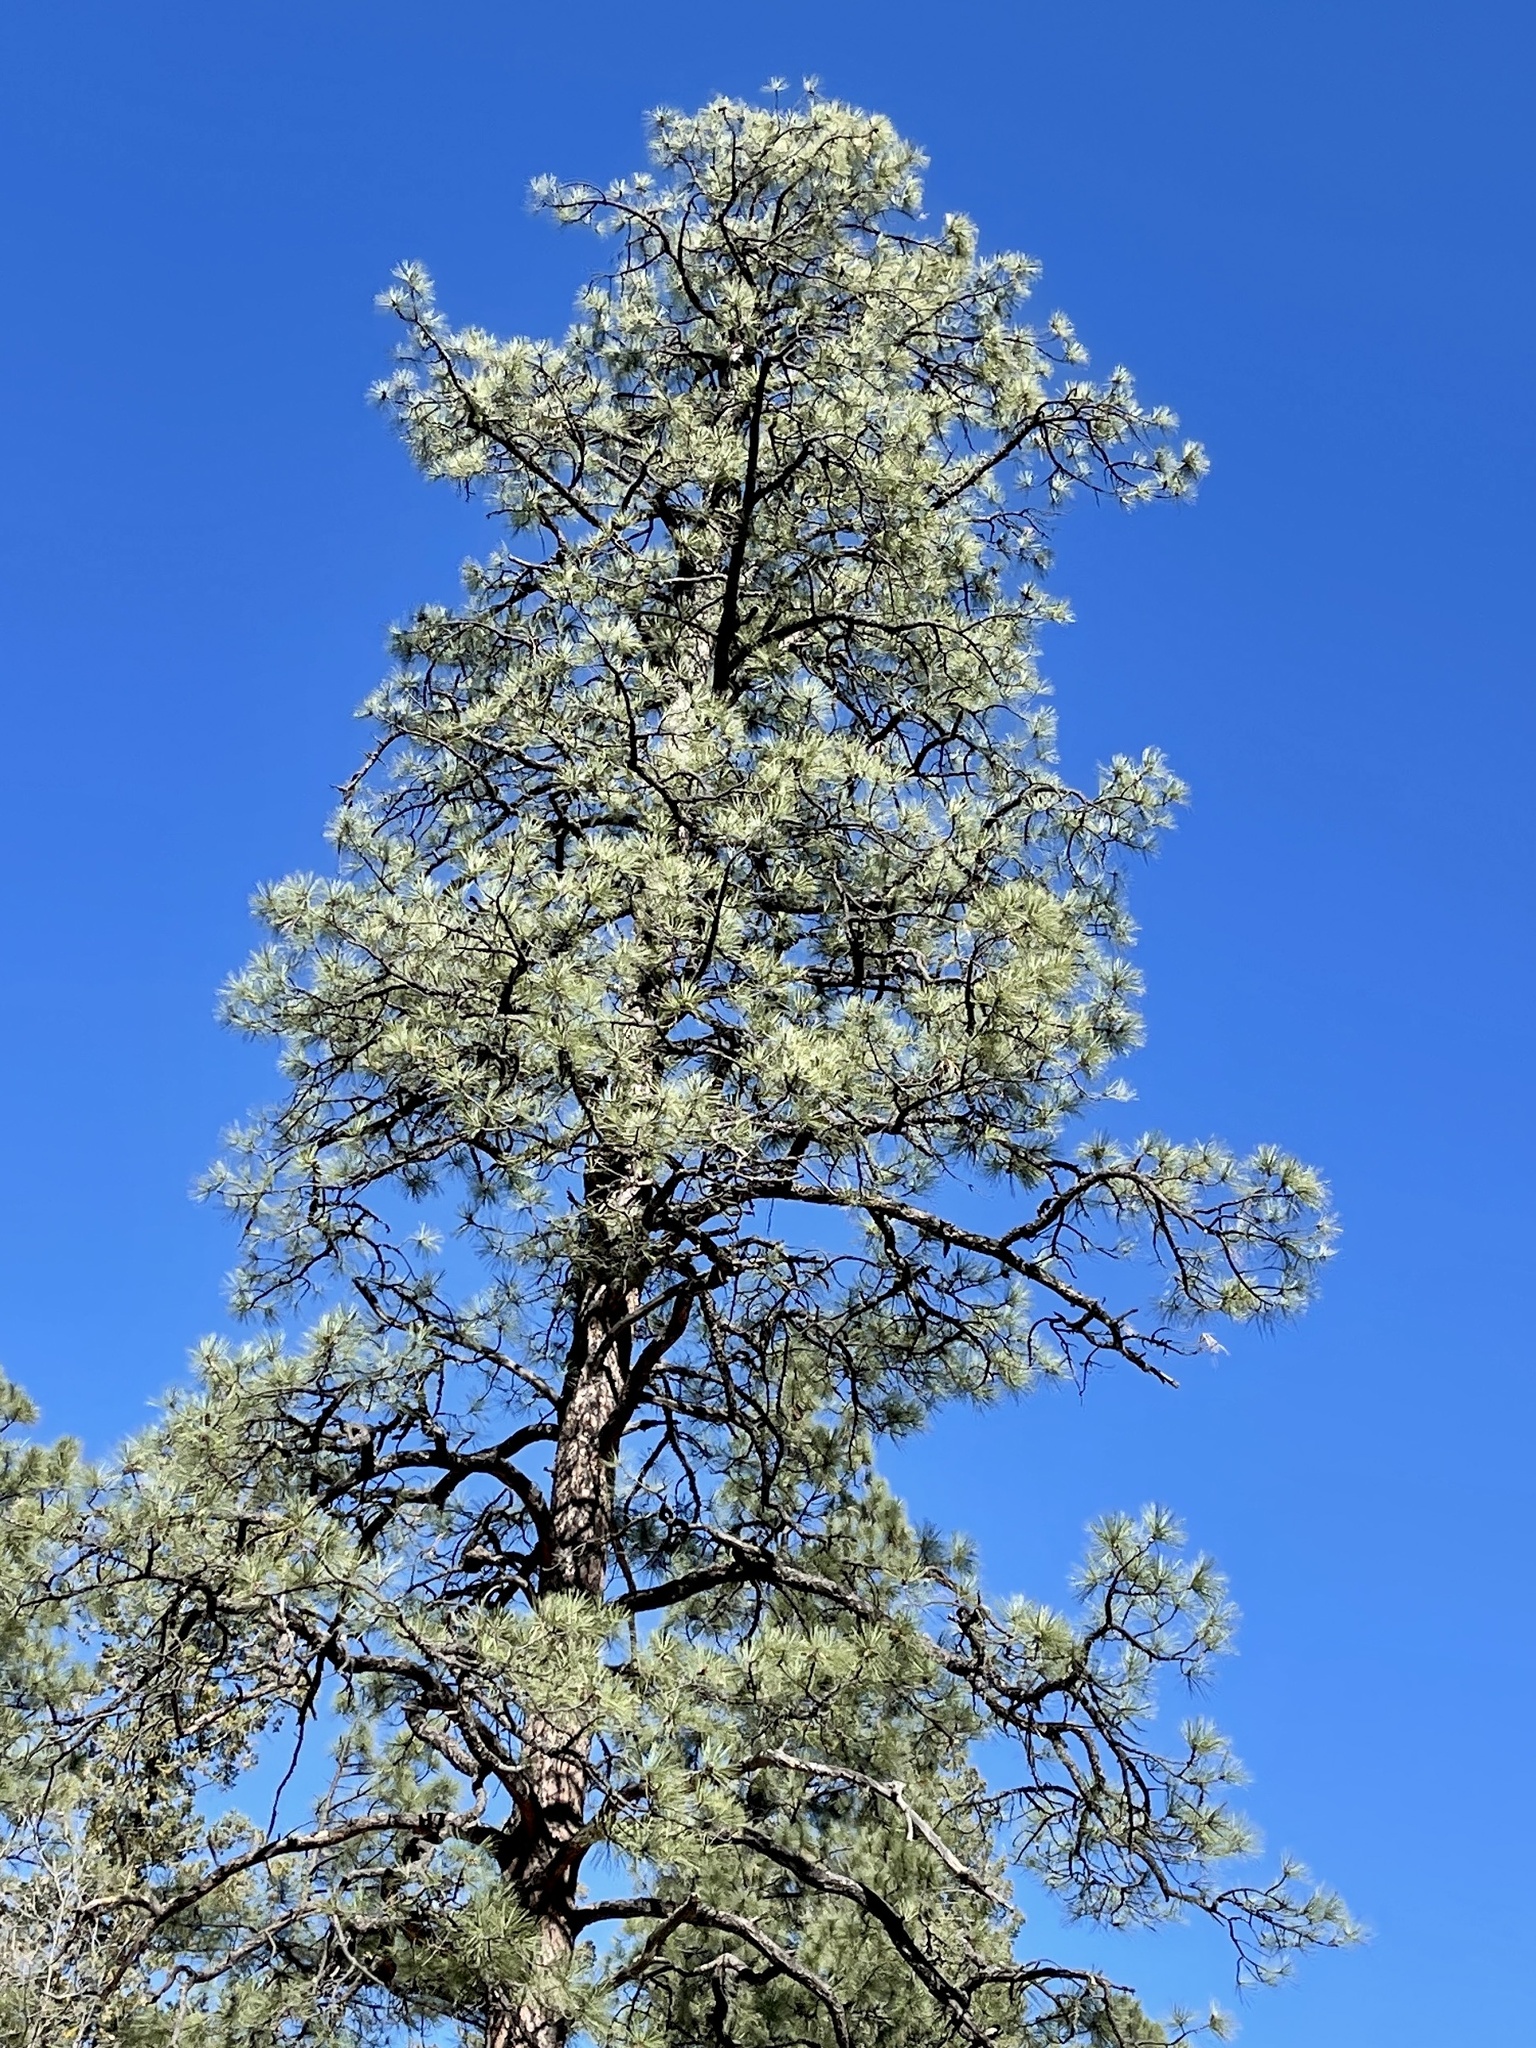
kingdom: Plantae
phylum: Tracheophyta
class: Pinopsida
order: Pinales
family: Pinaceae
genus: Pinus
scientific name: Pinus ponderosa
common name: Western yellow-pine
